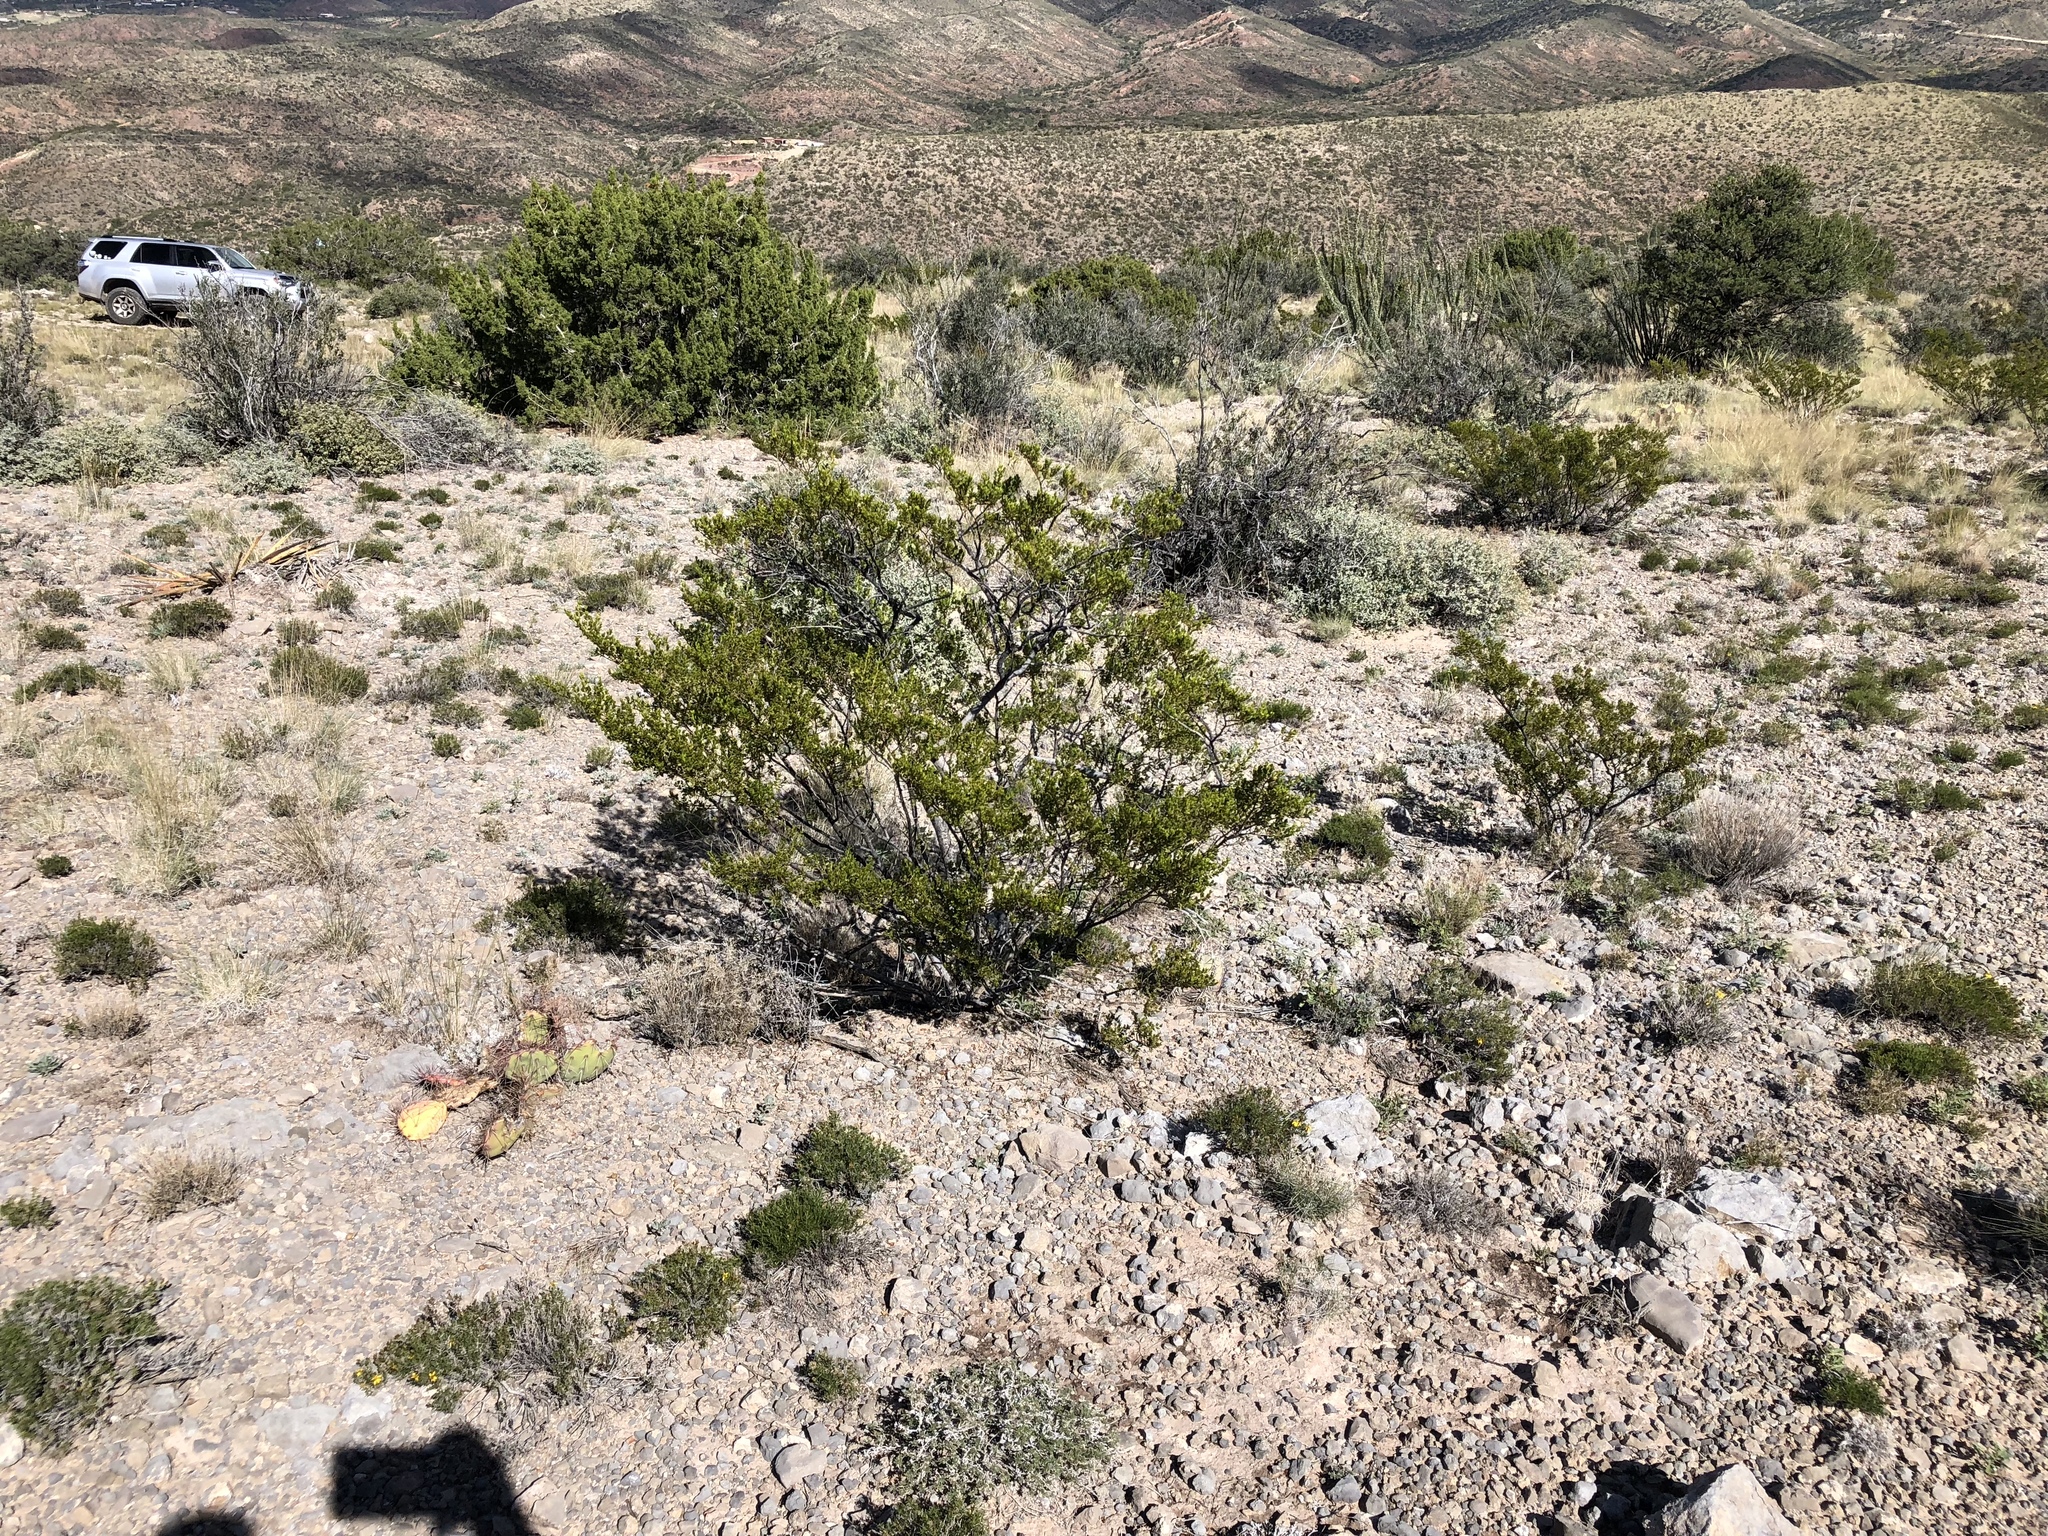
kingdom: Plantae
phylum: Tracheophyta
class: Magnoliopsida
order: Zygophyllales
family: Zygophyllaceae
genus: Larrea
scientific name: Larrea tridentata
